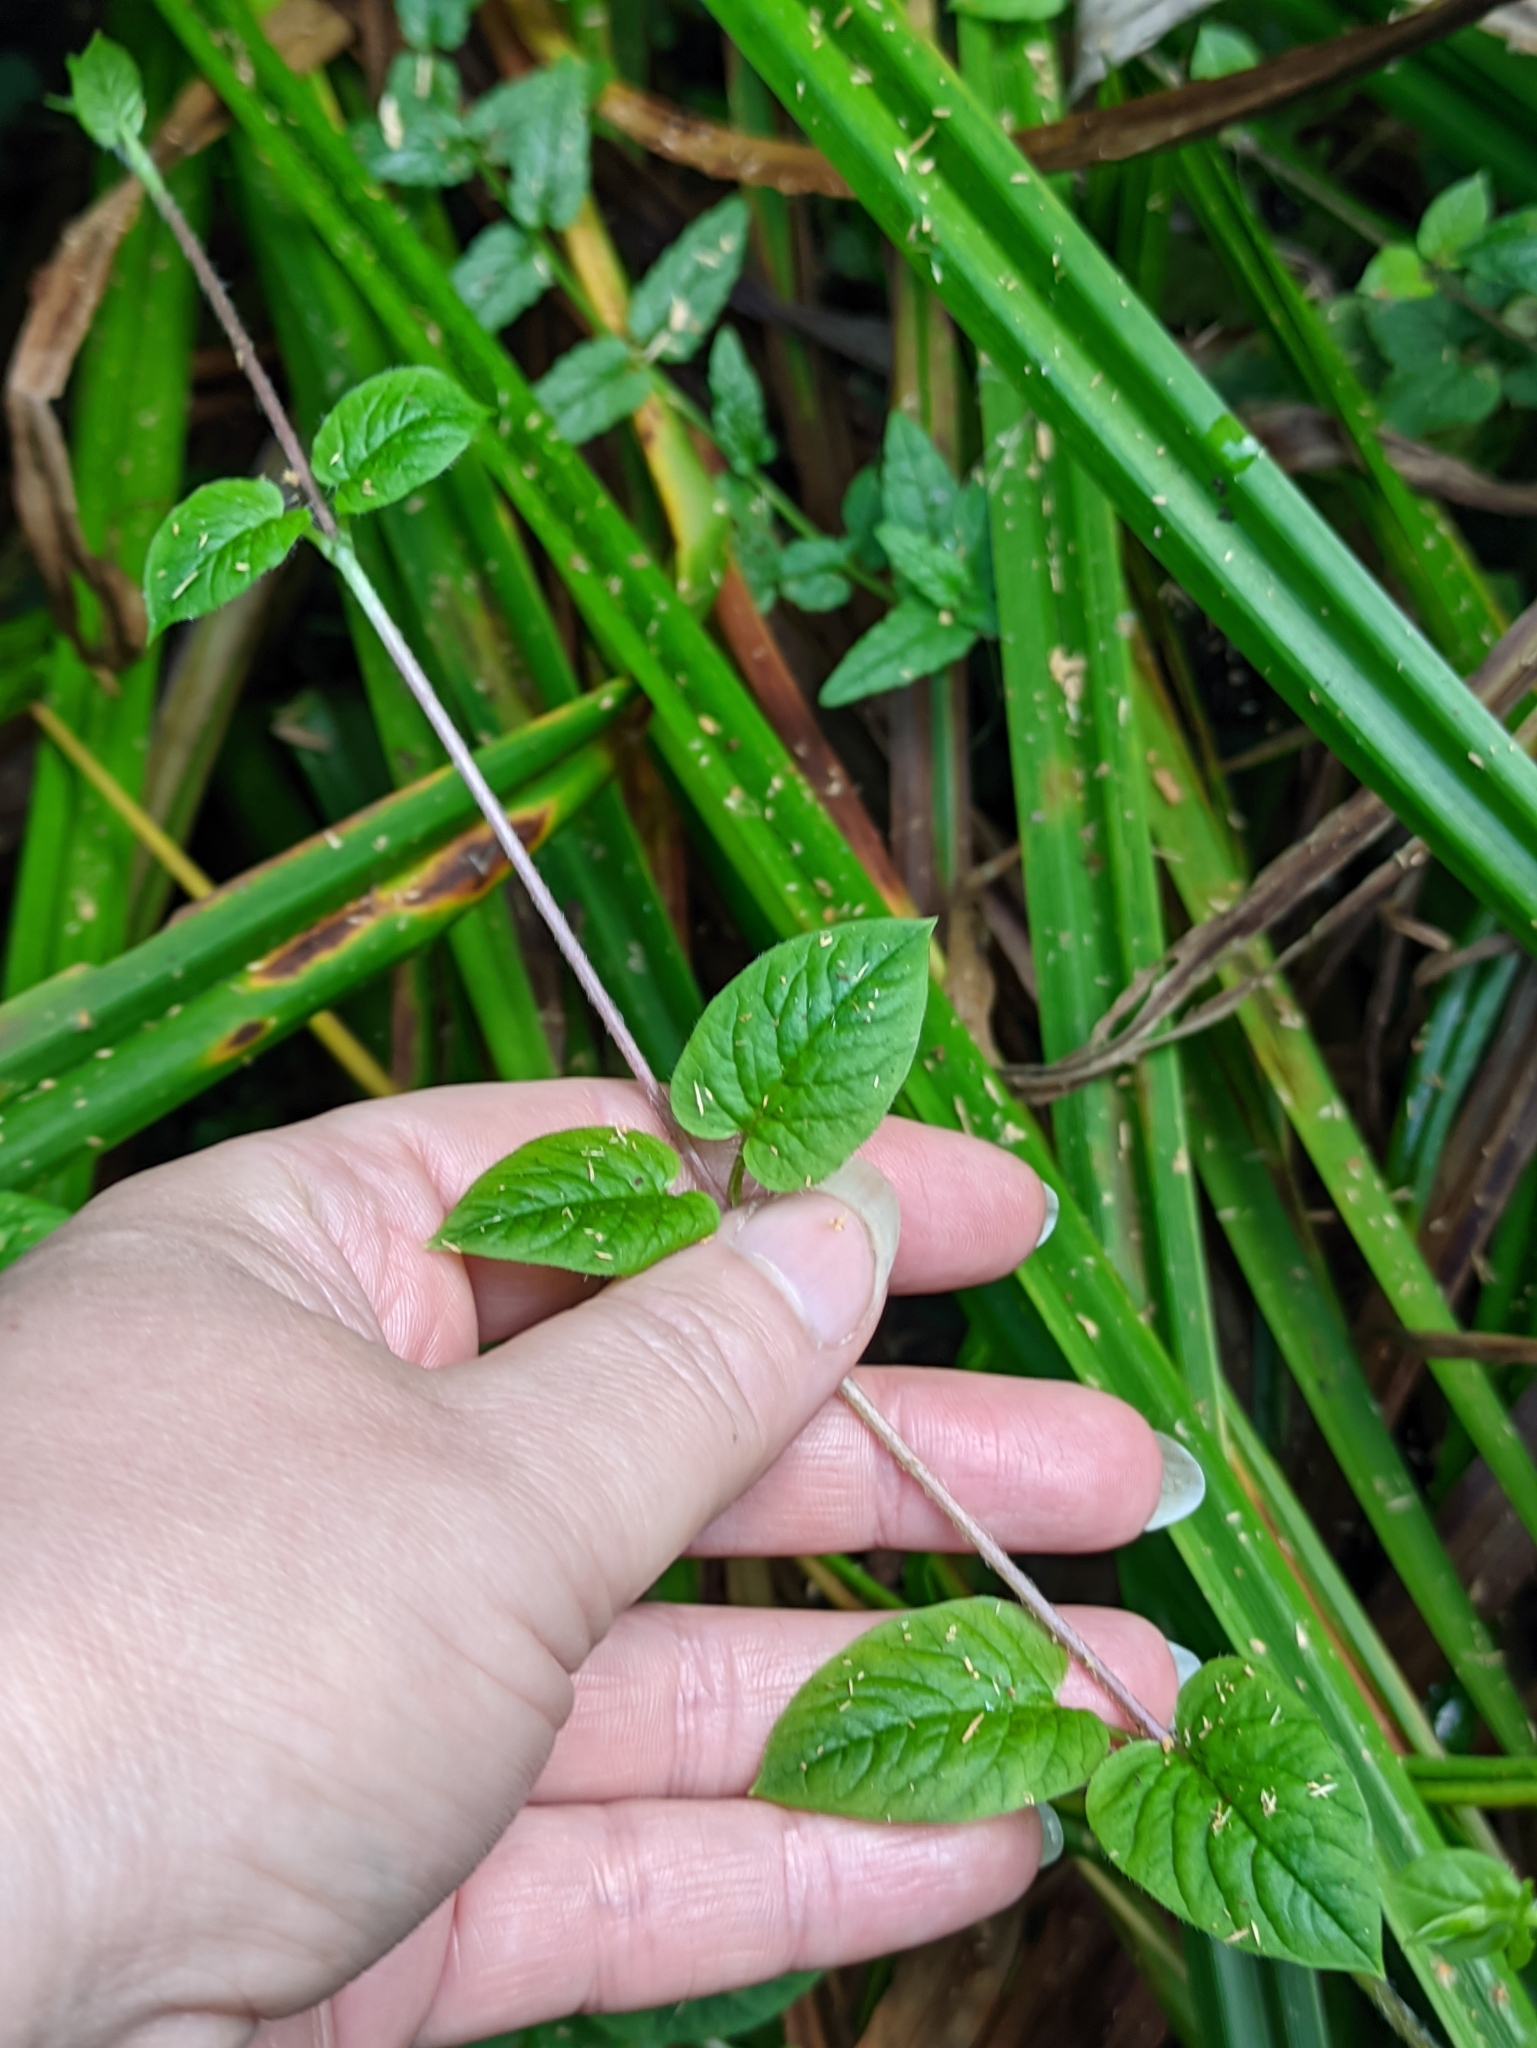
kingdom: Plantae
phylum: Tracheophyta
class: Magnoliopsida
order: Caryophyllales
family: Caryophyllaceae
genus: Stellaria
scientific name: Stellaria nemorum
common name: Wood stitchwort
